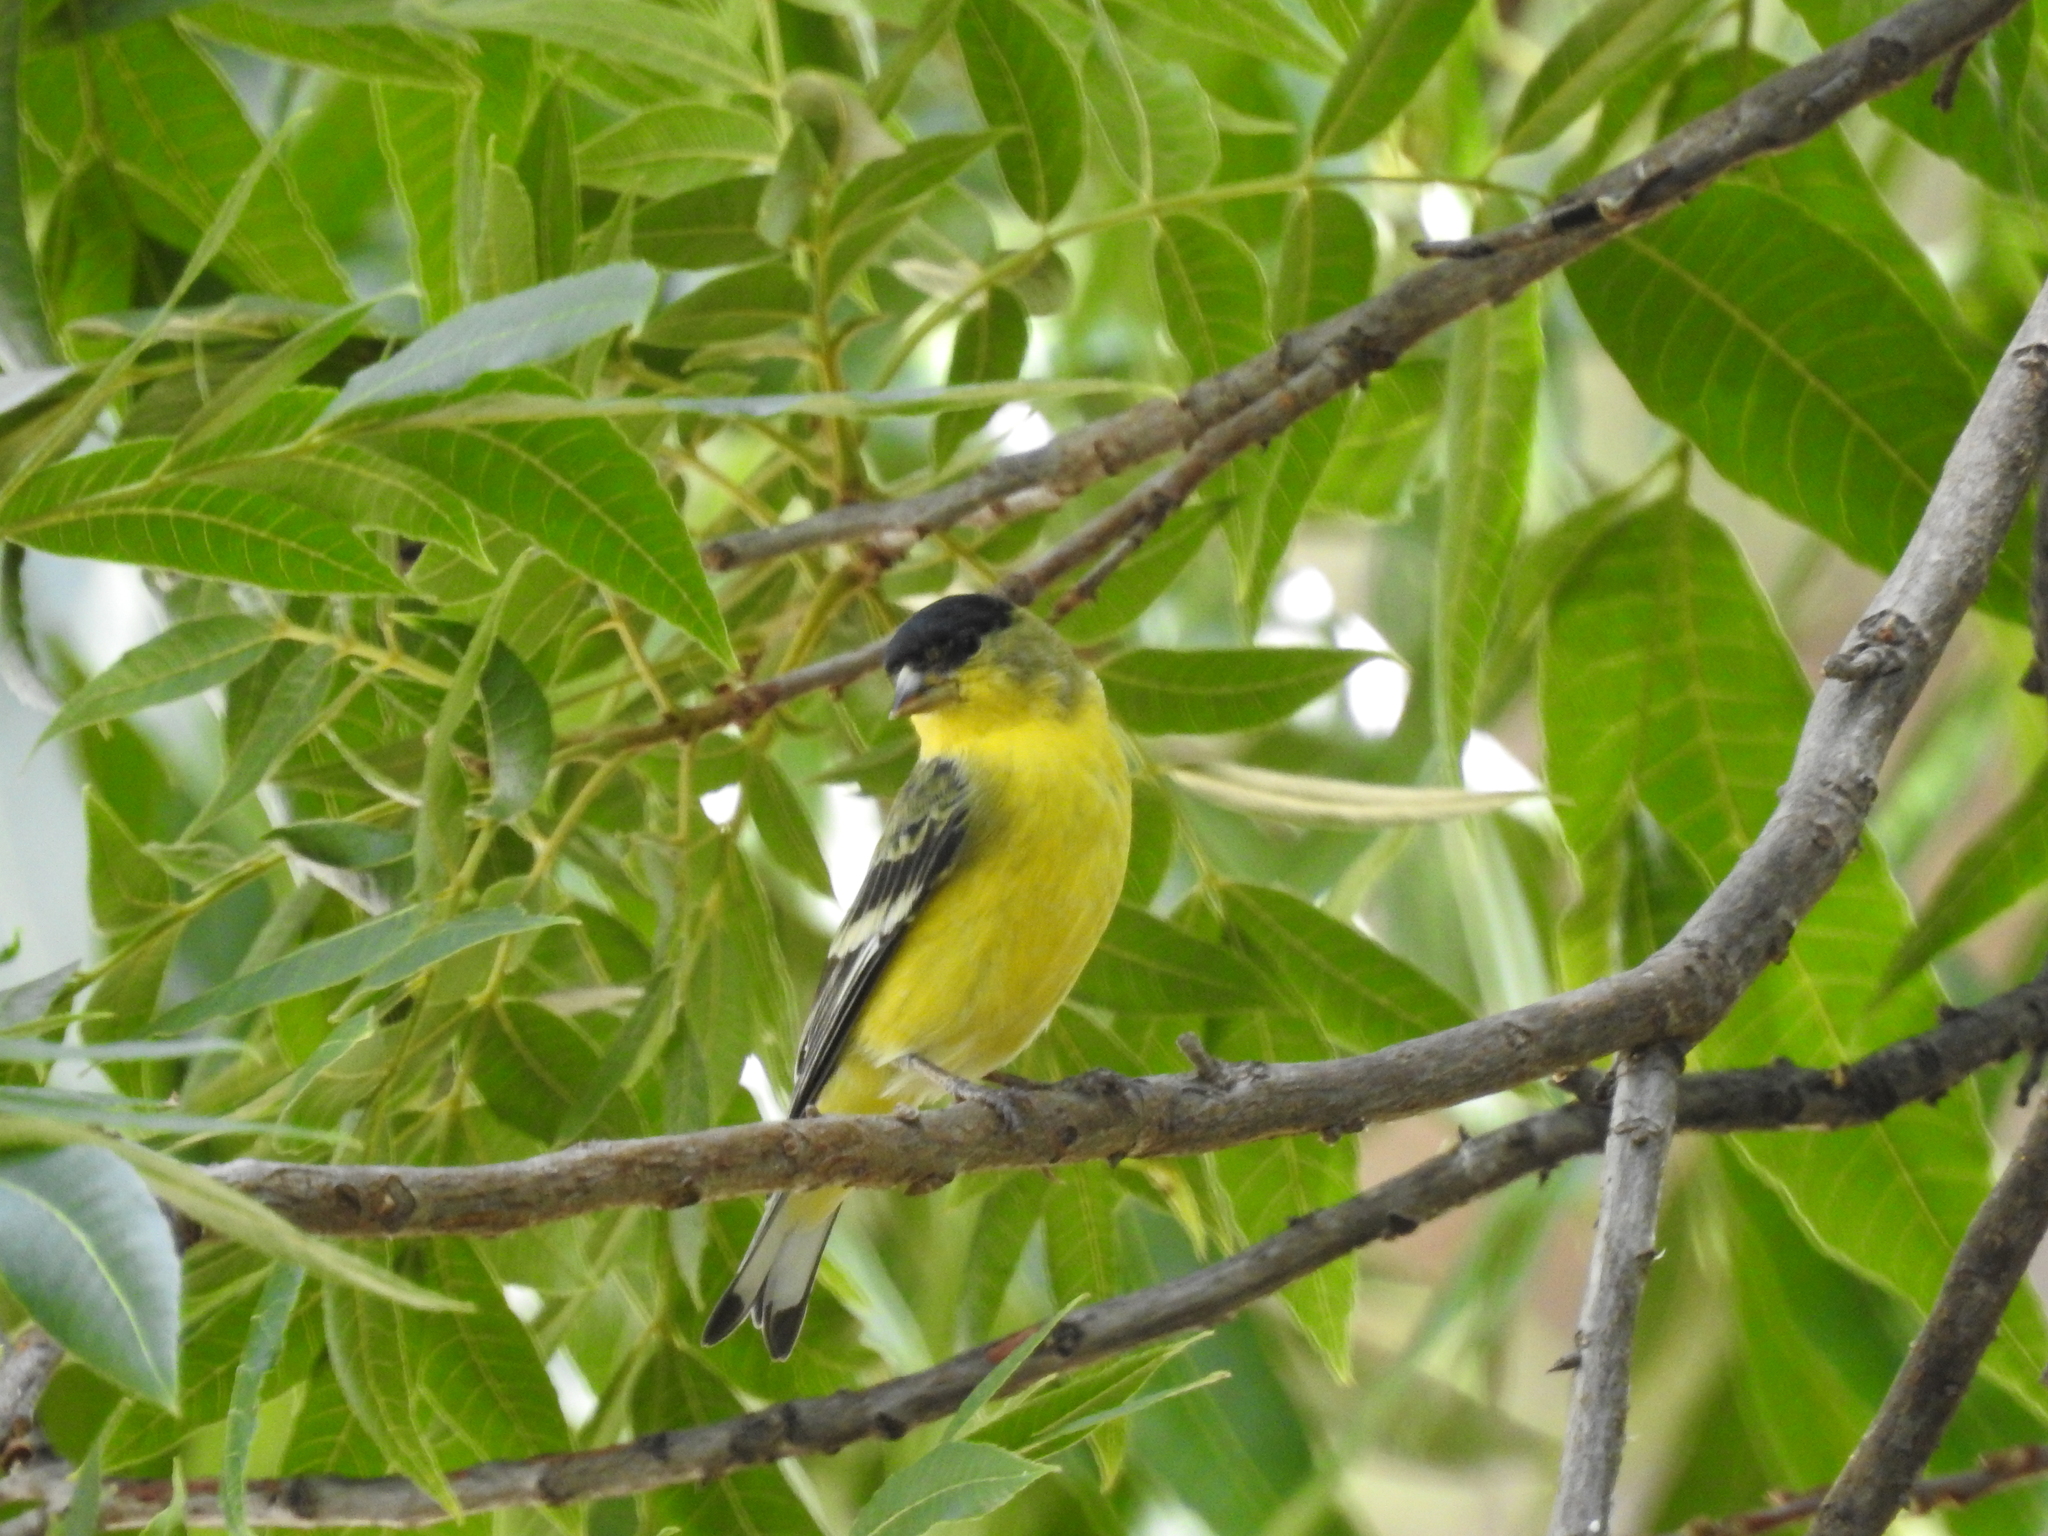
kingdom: Animalia
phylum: Chordata
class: Aves
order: Passeriformes
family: Fringillidae
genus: Spinus
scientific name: Spinus psaltria
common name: Lesser goldfinch
